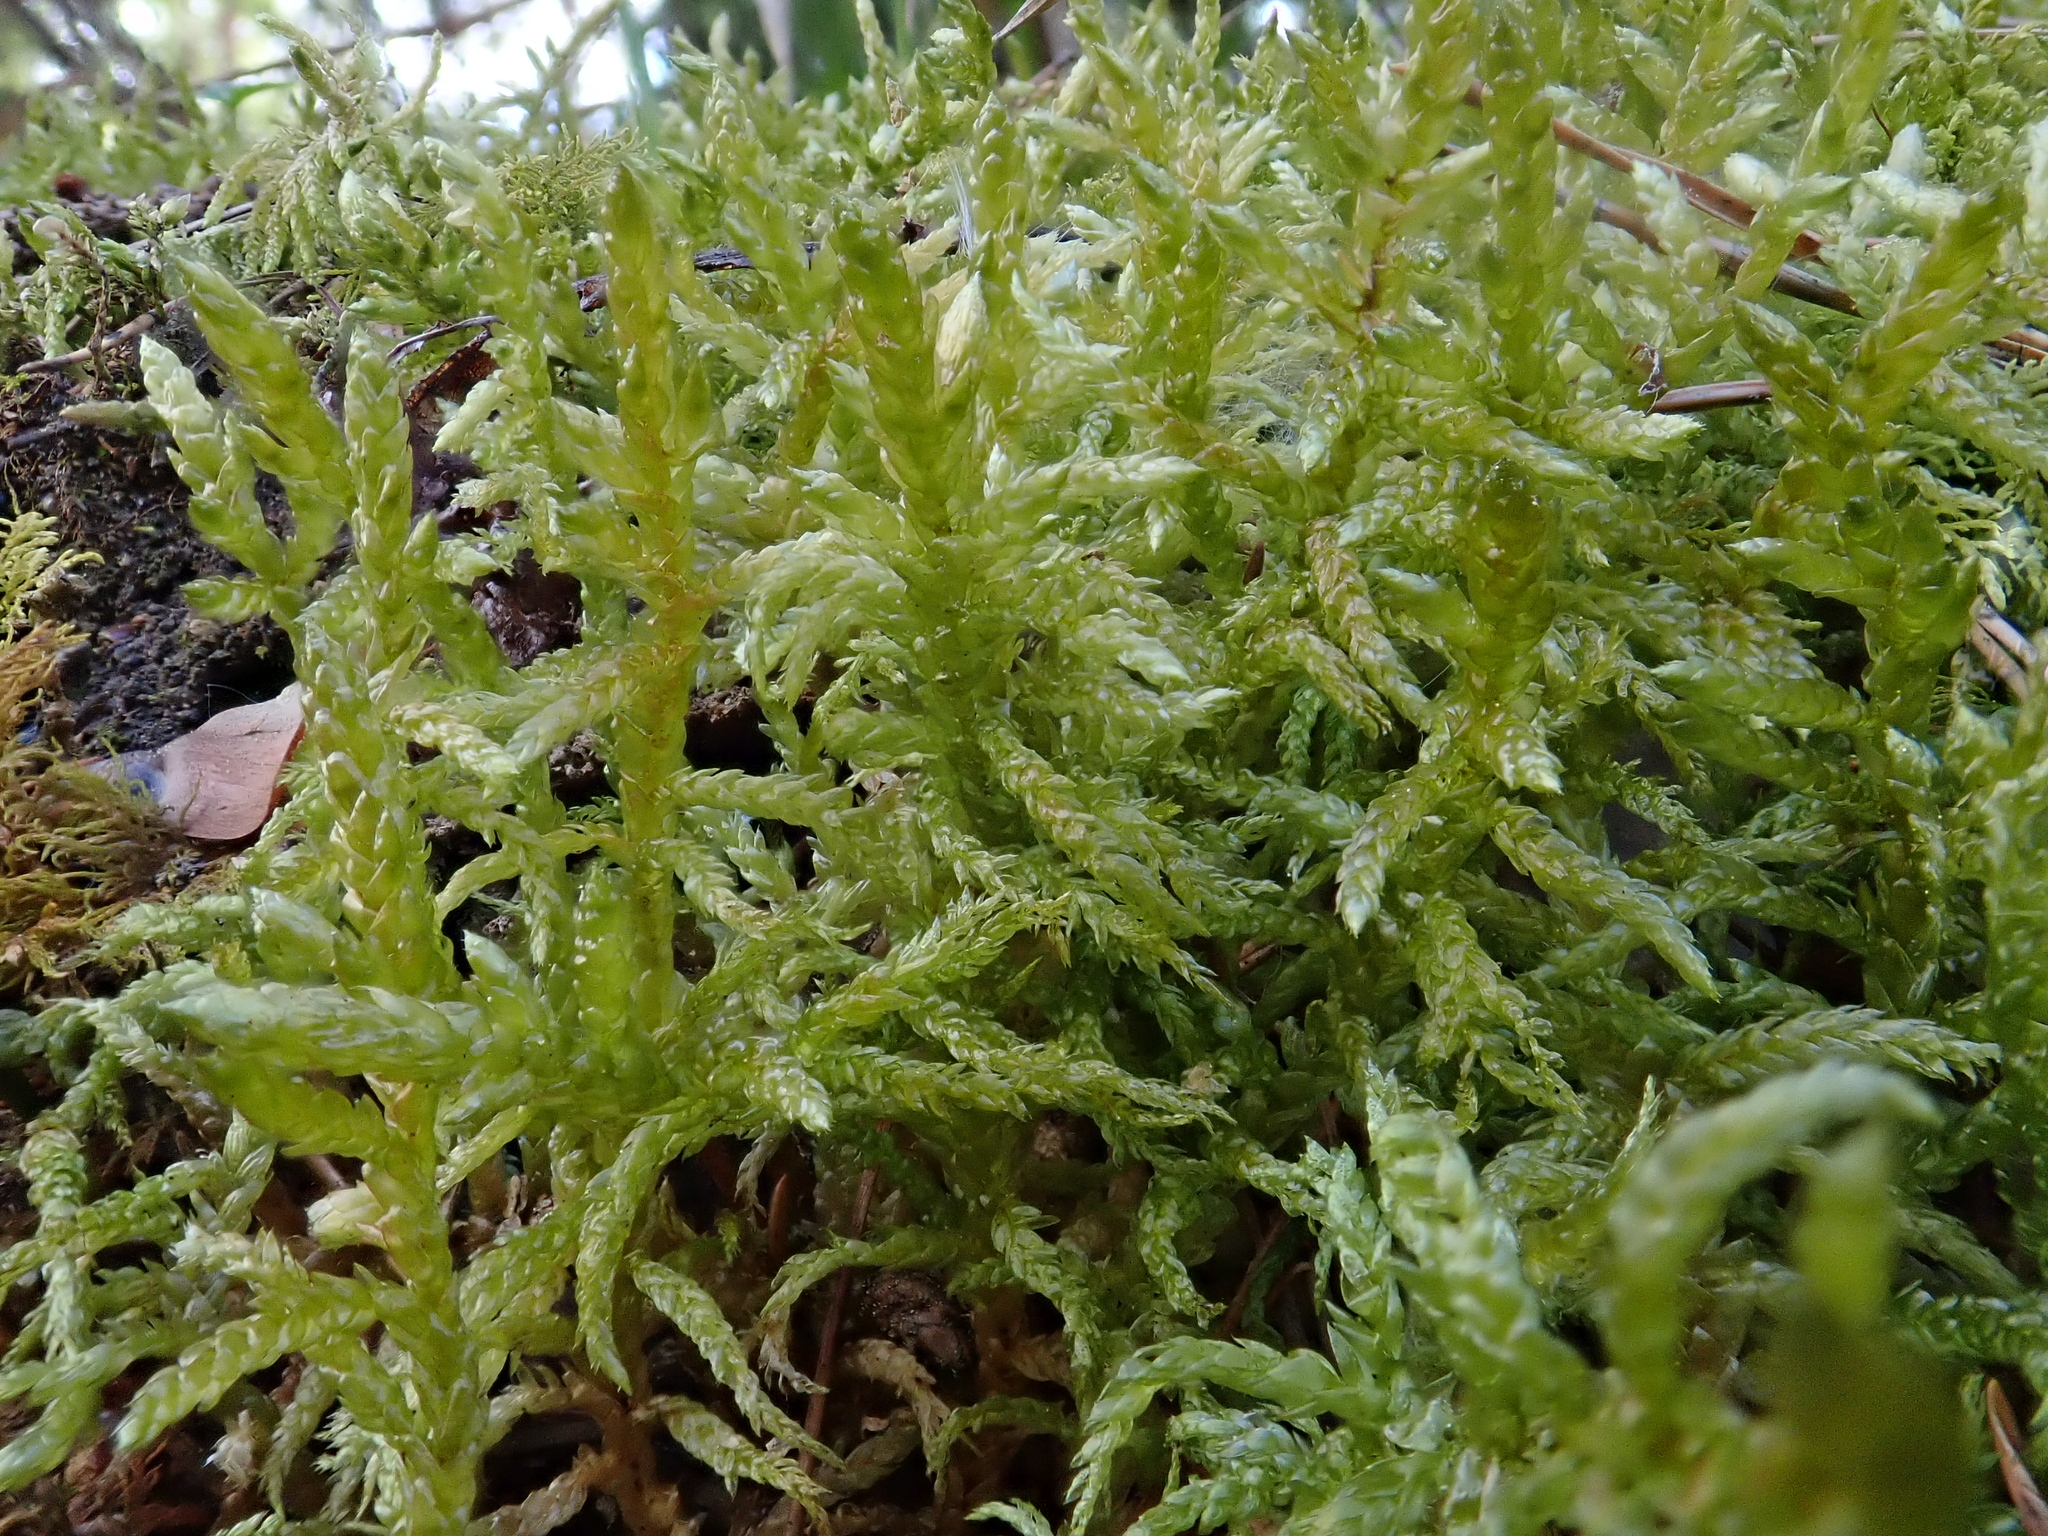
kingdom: Plantae
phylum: Bryophyta
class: Bryopsida
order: Hypnales
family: Hylocomiaceae
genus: Pleurozium
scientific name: Pleurozium schreberi
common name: Red-stemmed feather moss
